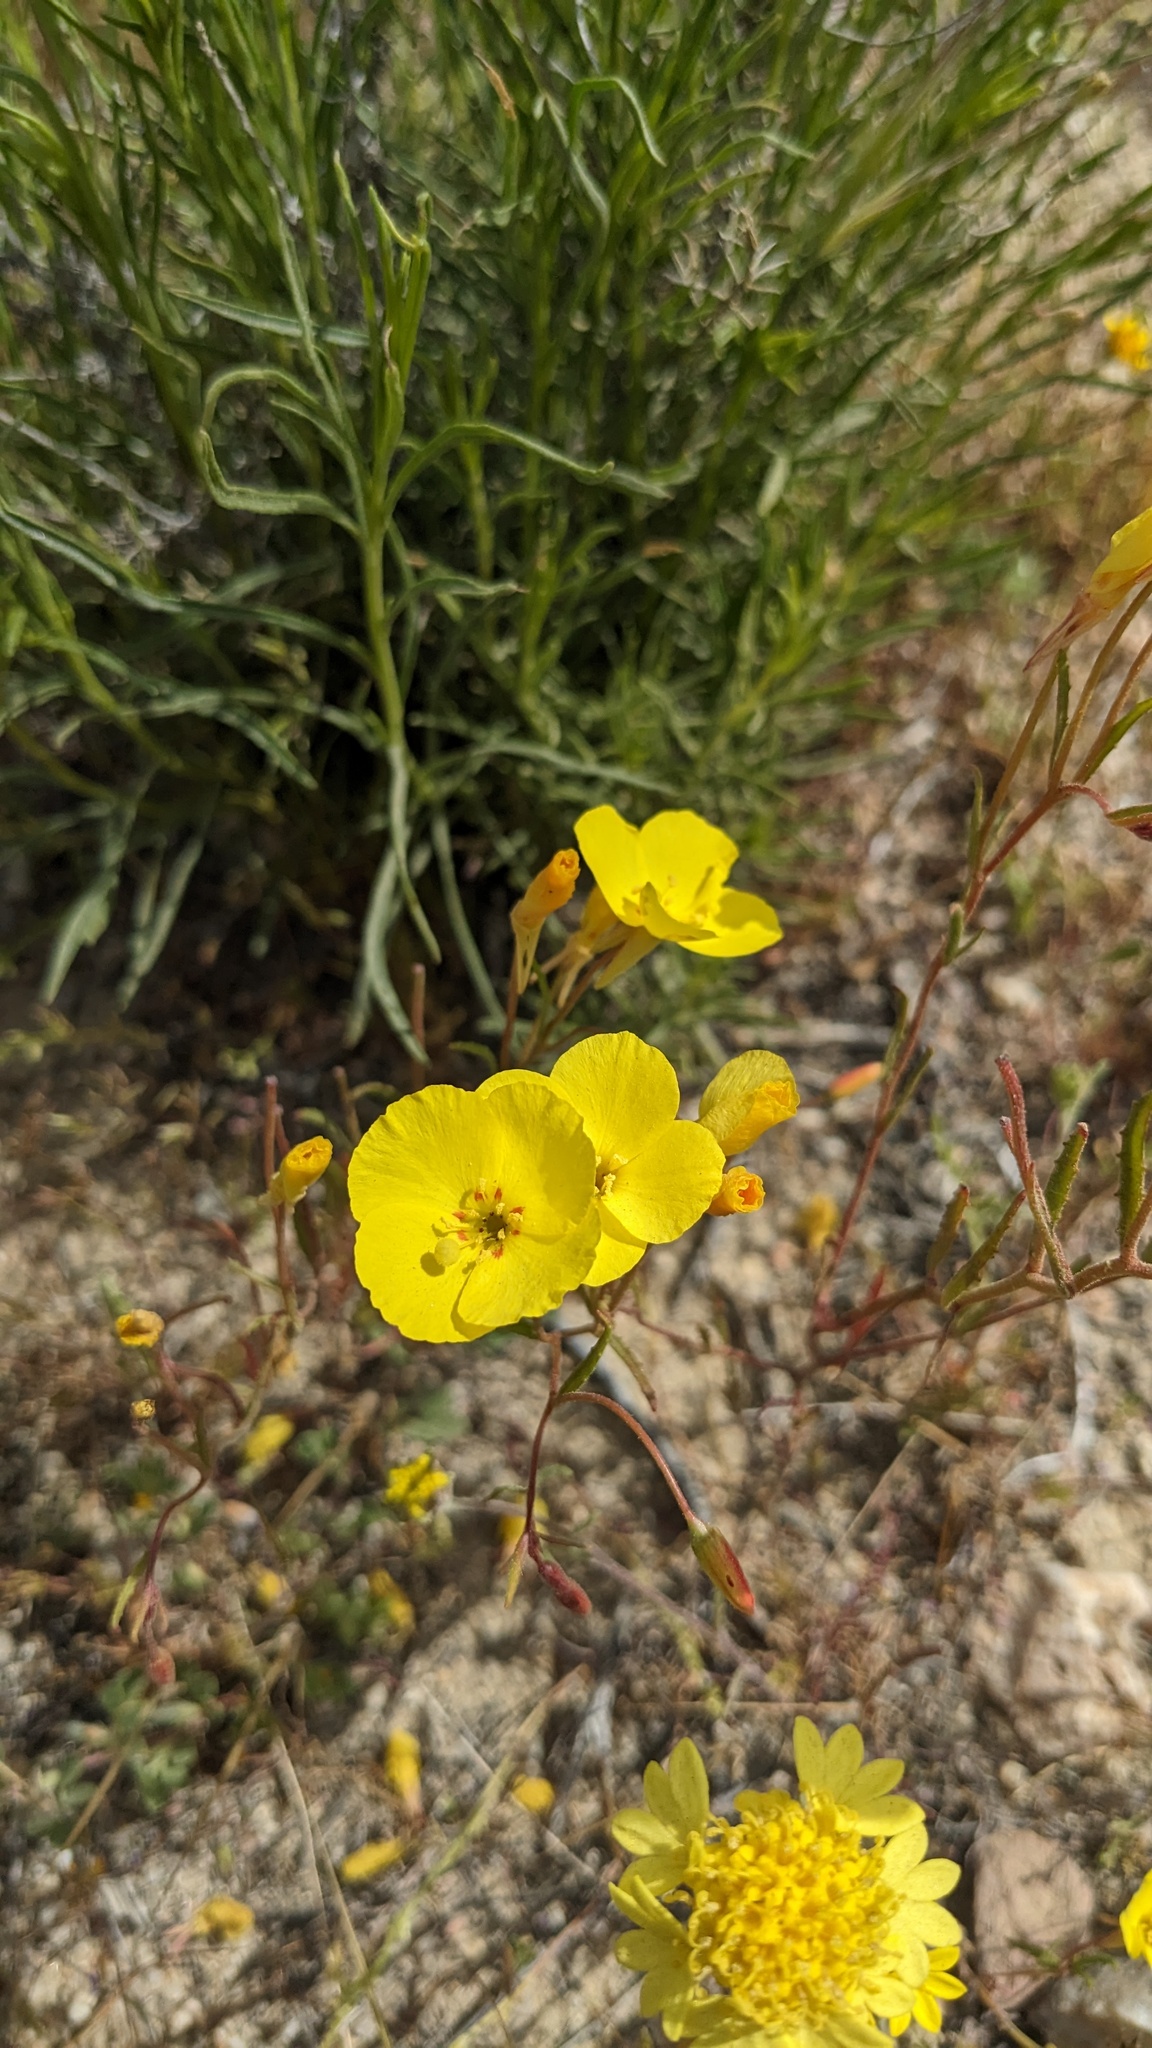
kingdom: Plantae
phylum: Tracheophyta
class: Magnoliopsida
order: Myrtales
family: Onagraceae
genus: Camissonia
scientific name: Camissonia campestris
